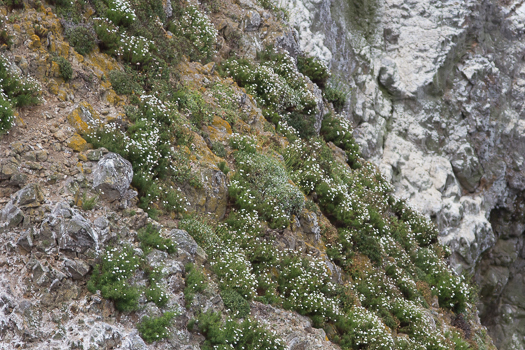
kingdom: Plantae
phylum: Tracheophyta
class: Magnoliopsida
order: Asterales
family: Asteraceae
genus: Malacothrix
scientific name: Malacothrix saxatilis
